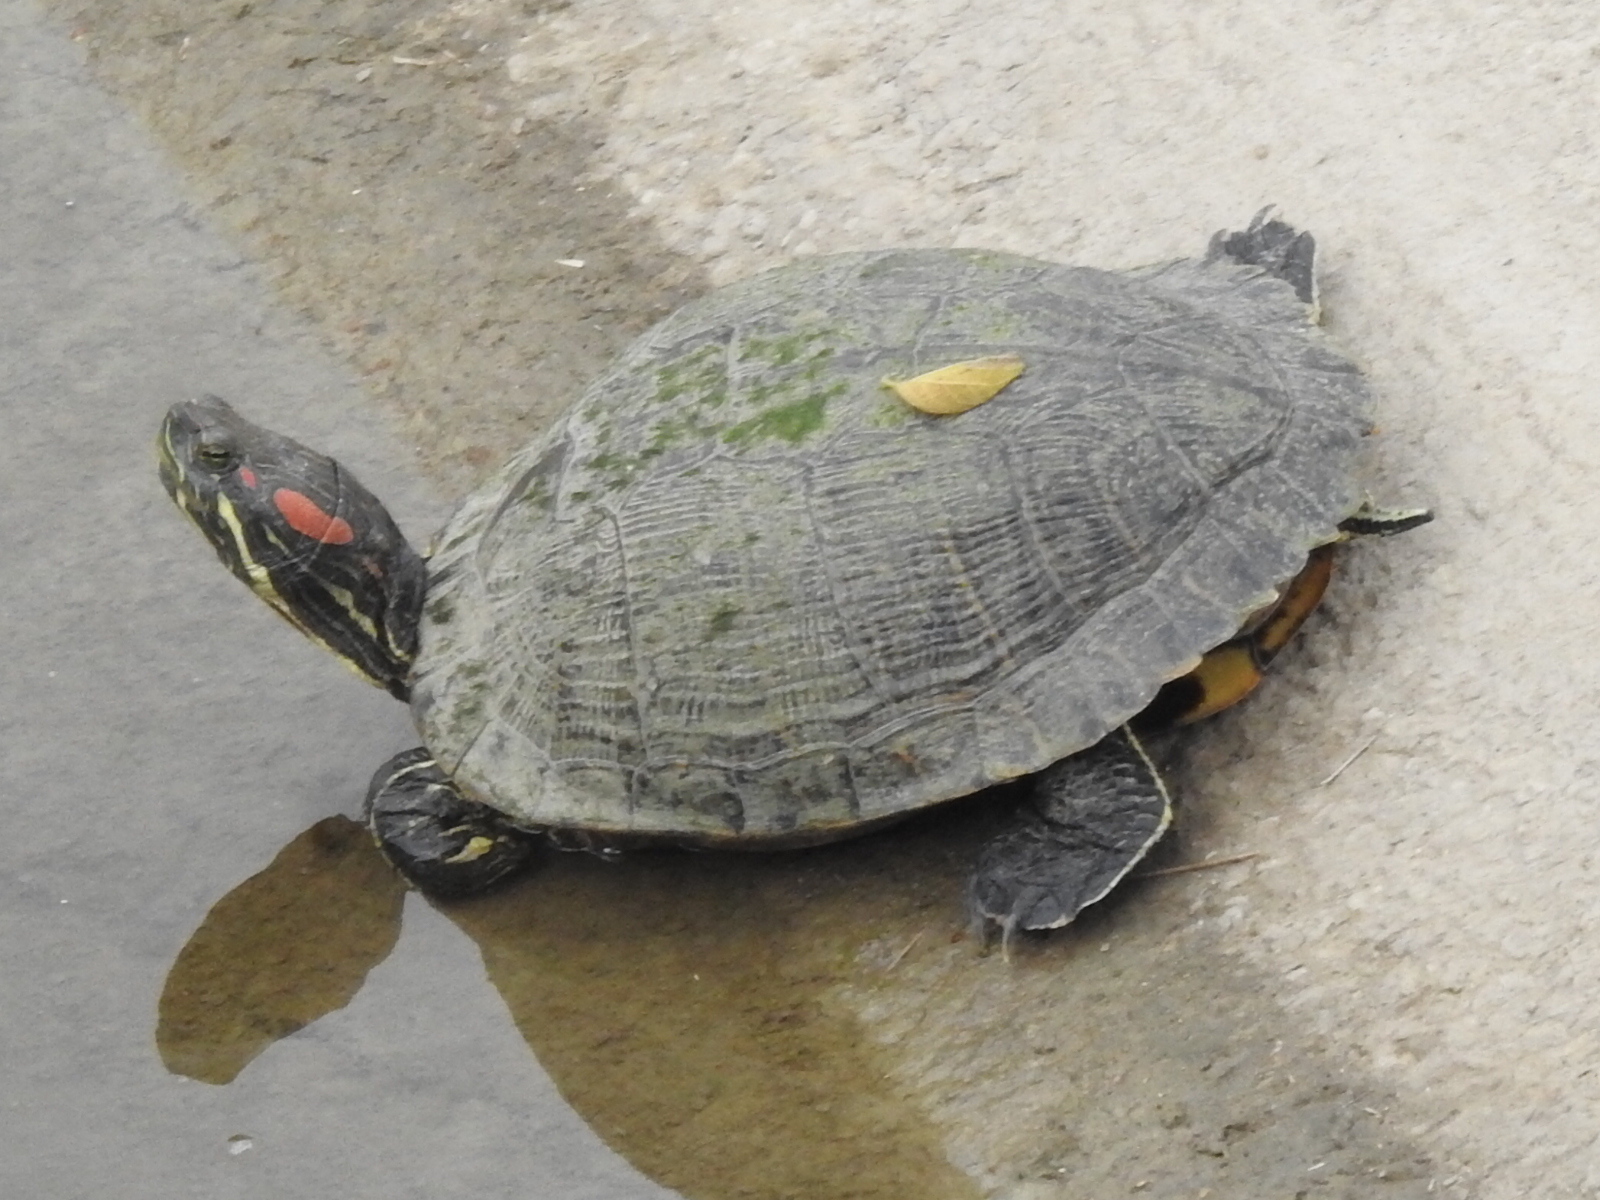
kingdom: Animalia
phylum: Chordata
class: Testudines
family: Emydidae
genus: Trachemys
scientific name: Trachemys scripta
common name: Slider
